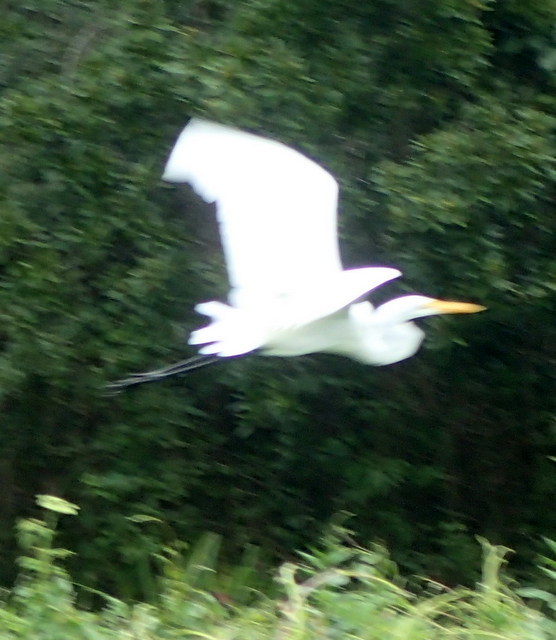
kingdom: Animalia
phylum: Chordata
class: Aves
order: Pelecaniformes
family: Ardeidae
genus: Ardea
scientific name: Ardea alba
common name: Great egret
